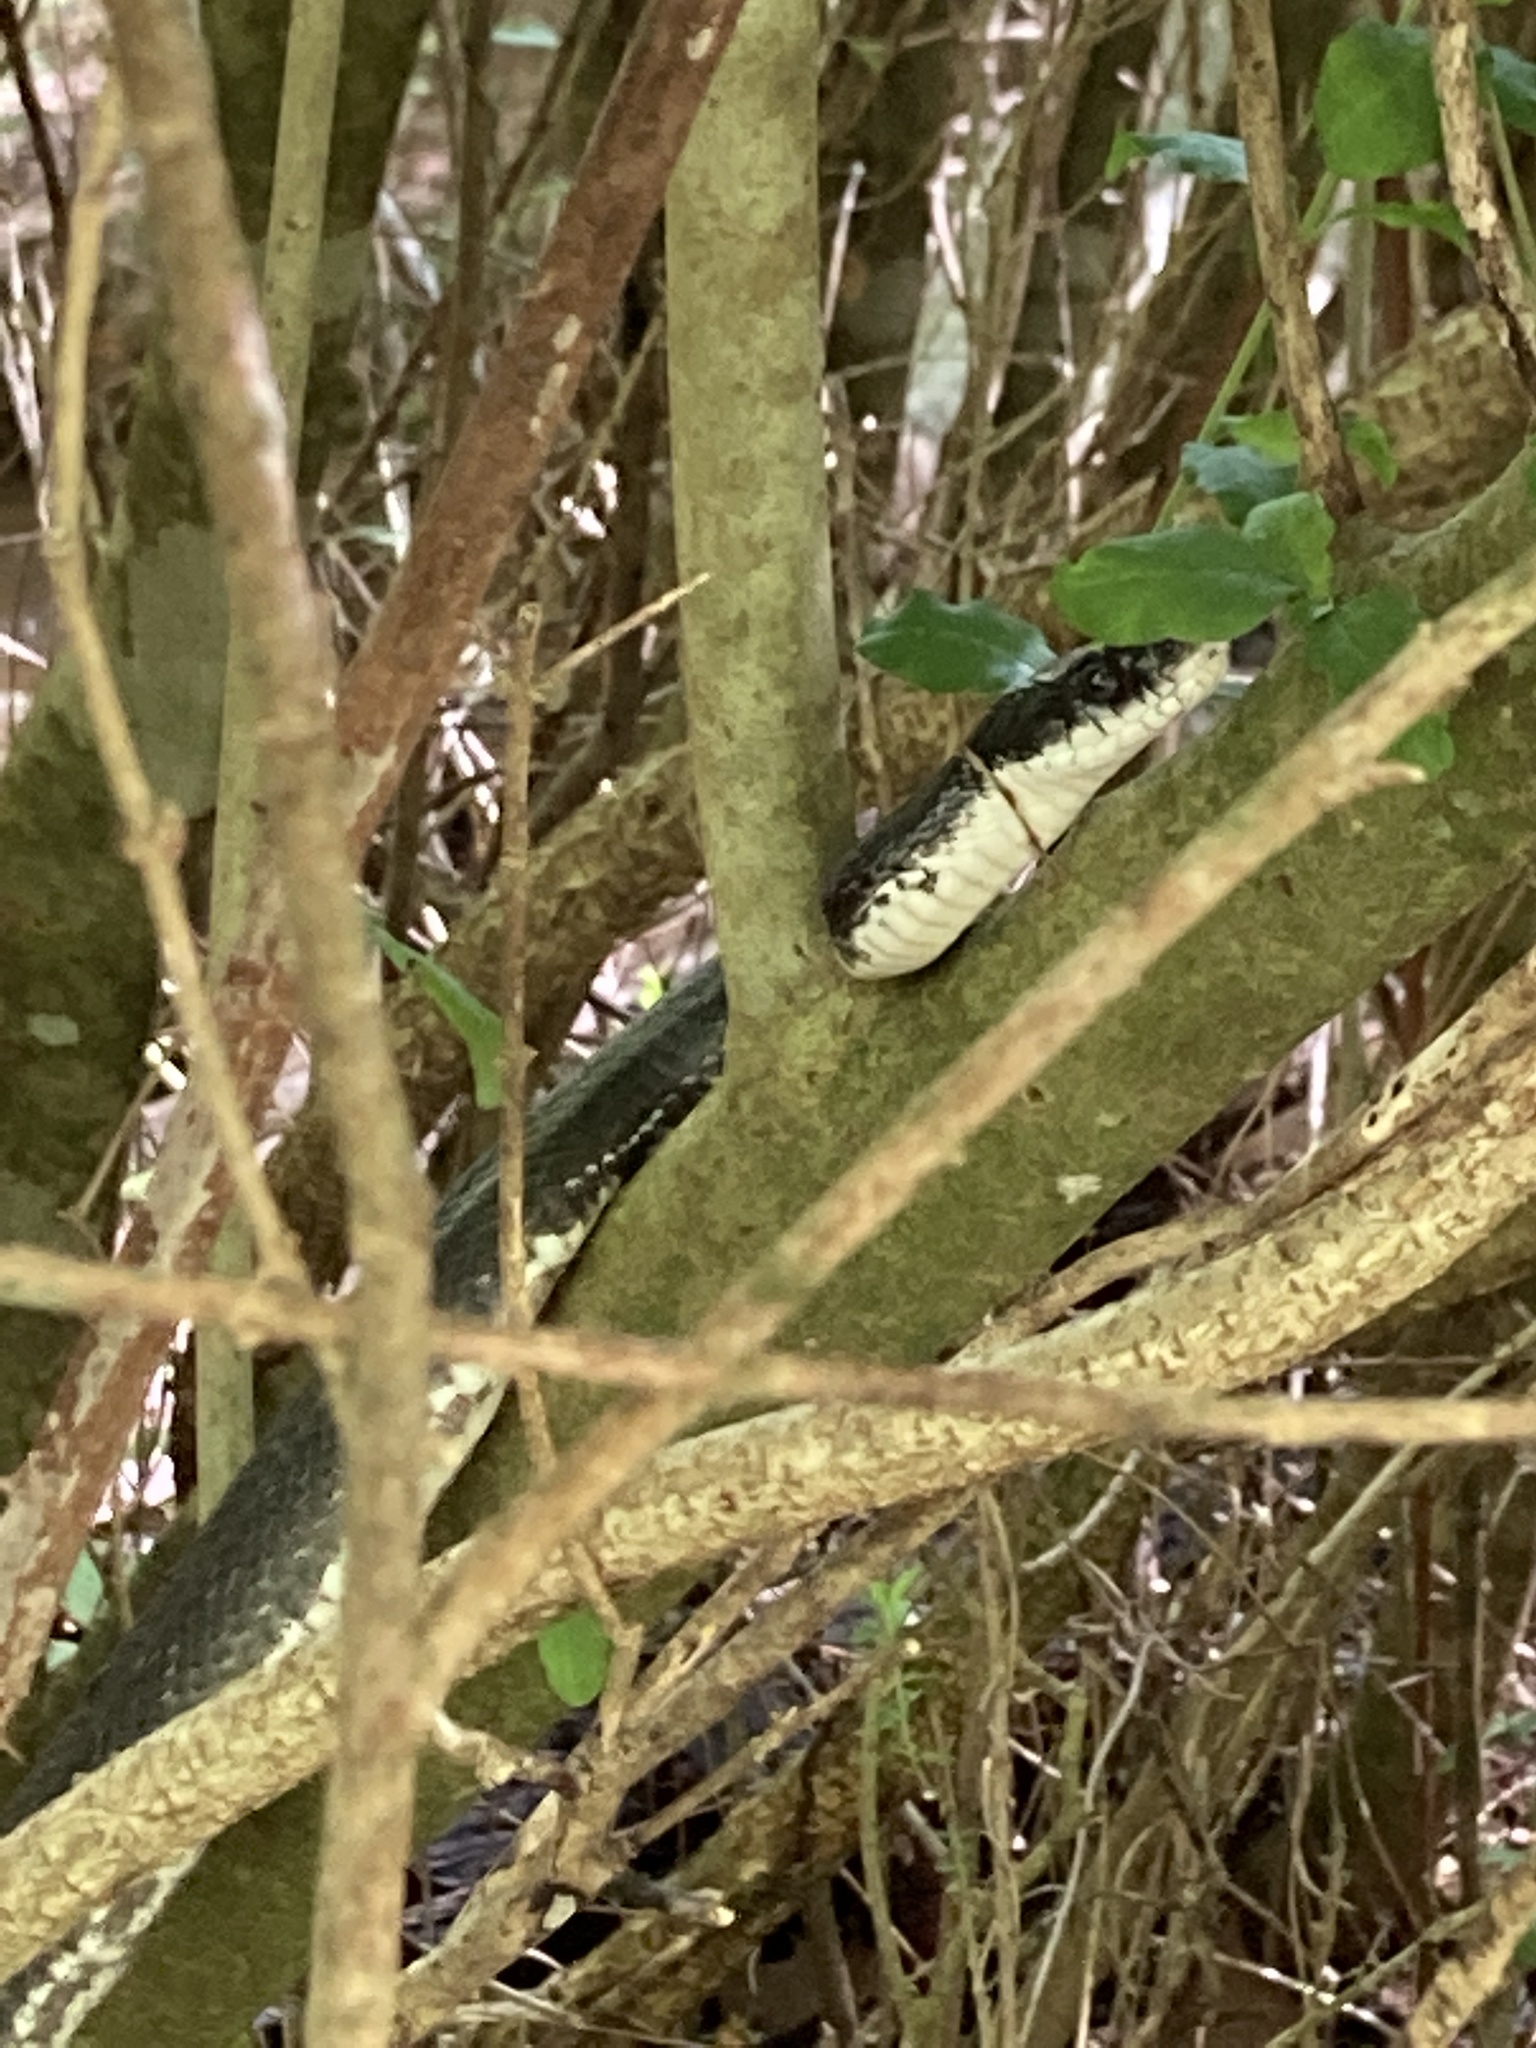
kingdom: Animalia
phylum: Chordata
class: Squamata
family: Colubridae
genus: Pantherophis
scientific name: Pantherophis alleghaniensis
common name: Eastern rat snake
